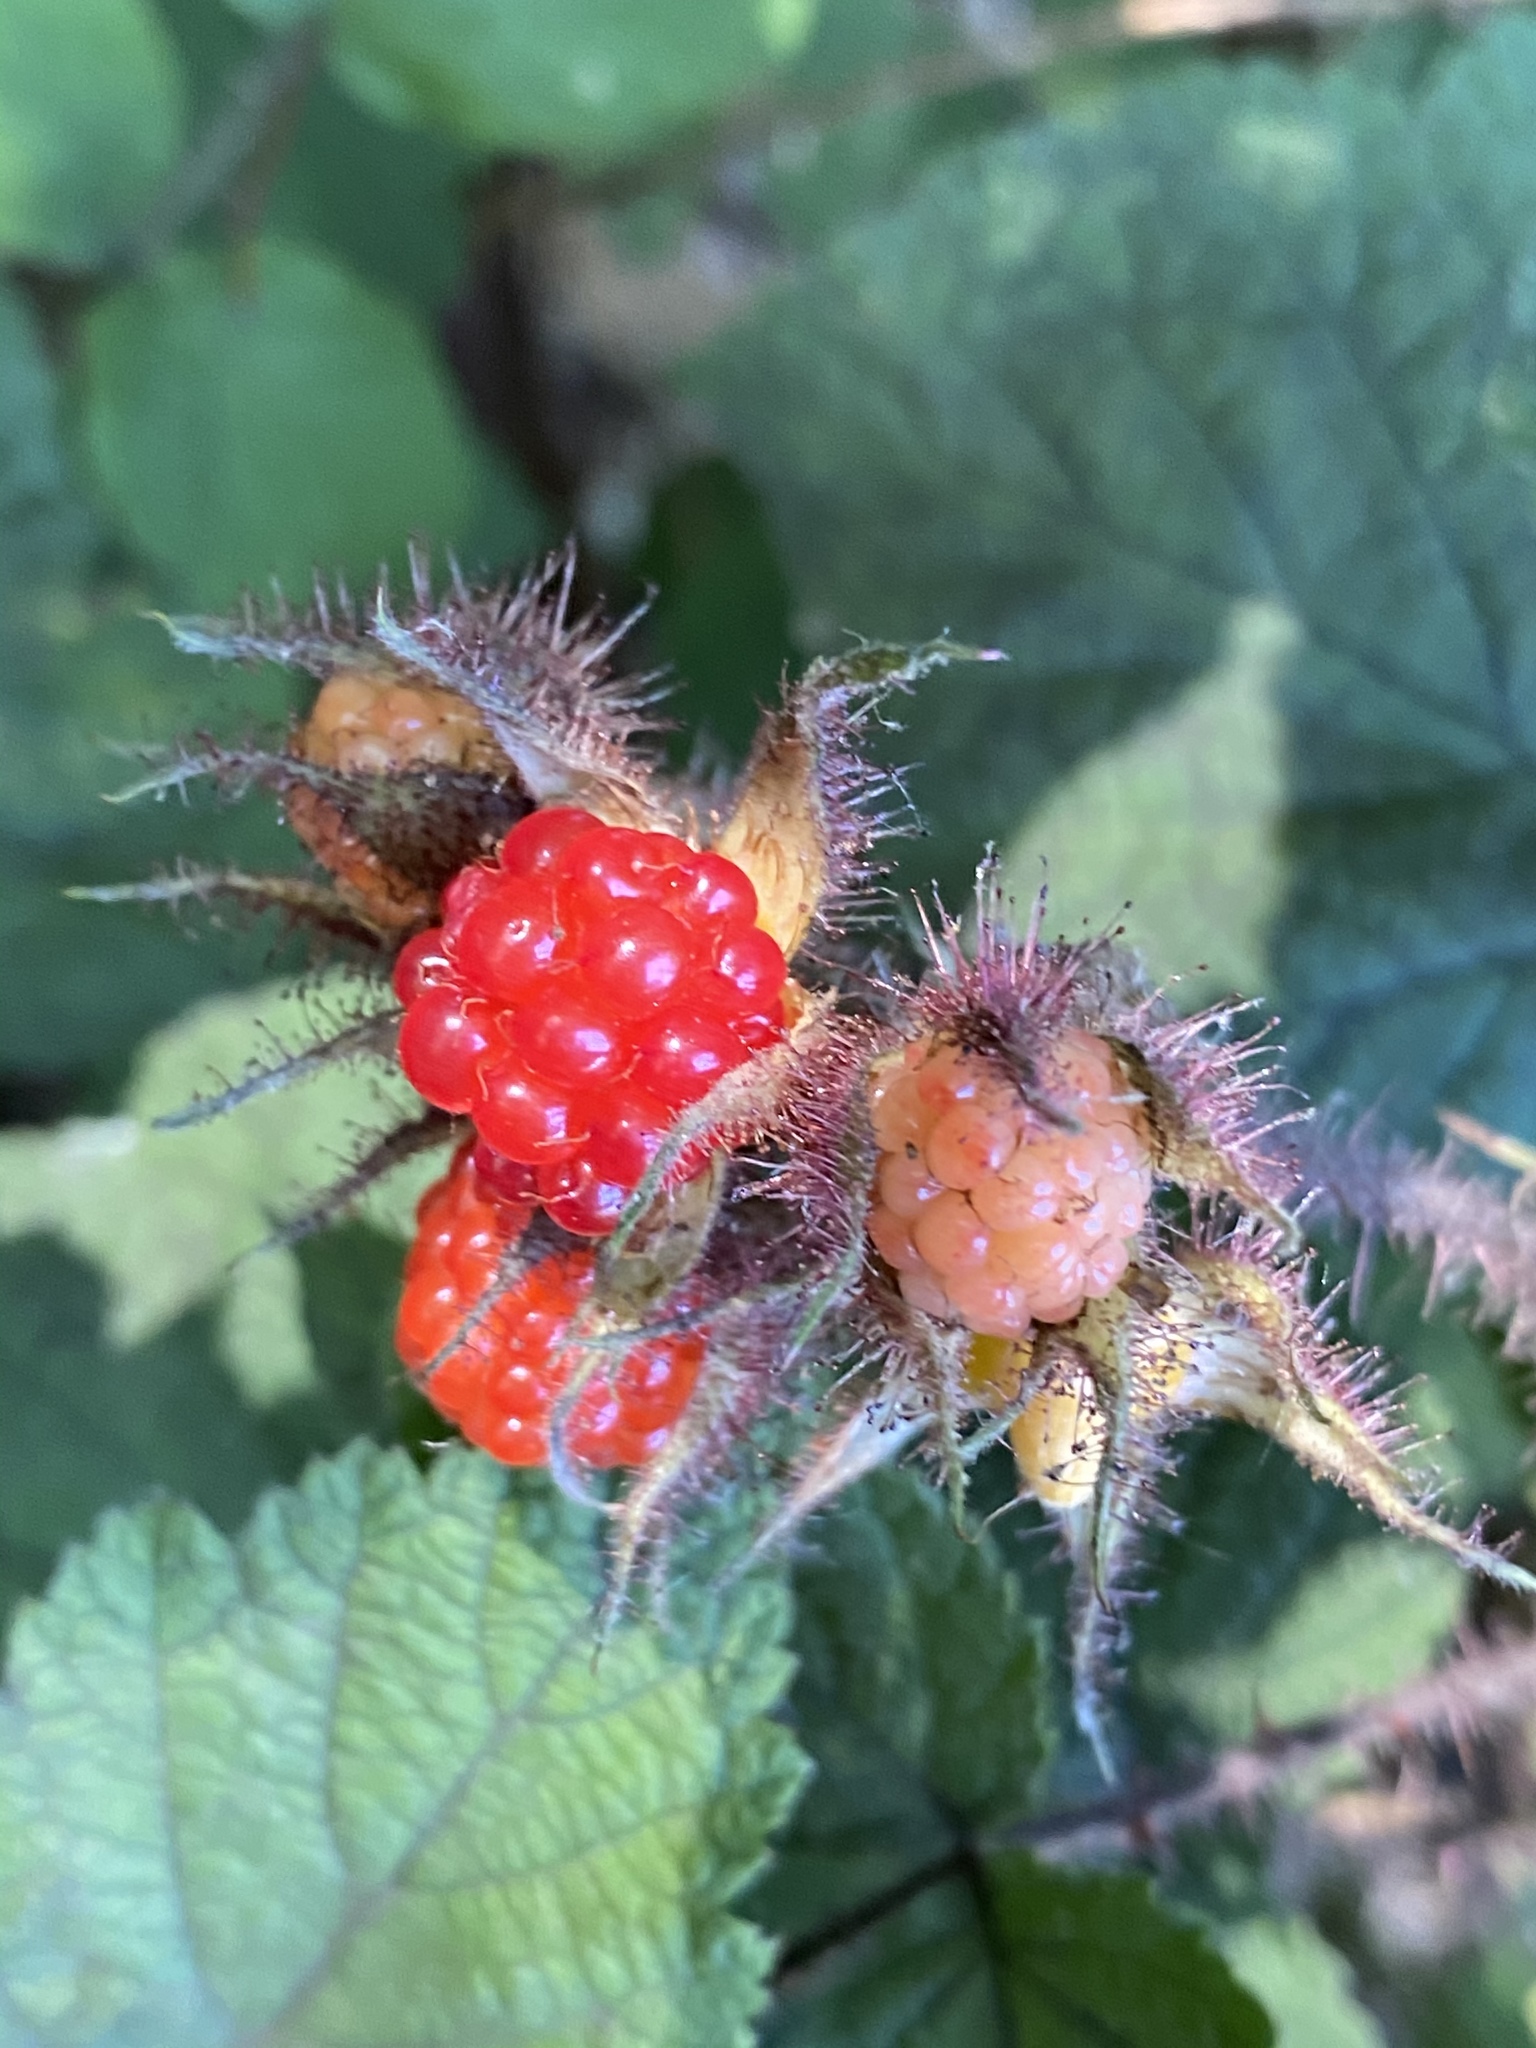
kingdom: Plantae
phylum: Tracheophyta
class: Magnoliopsida
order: Rosales
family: Rosaceae
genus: Rubus
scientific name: Rubus phoenicolasius
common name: Japanese wineberry
